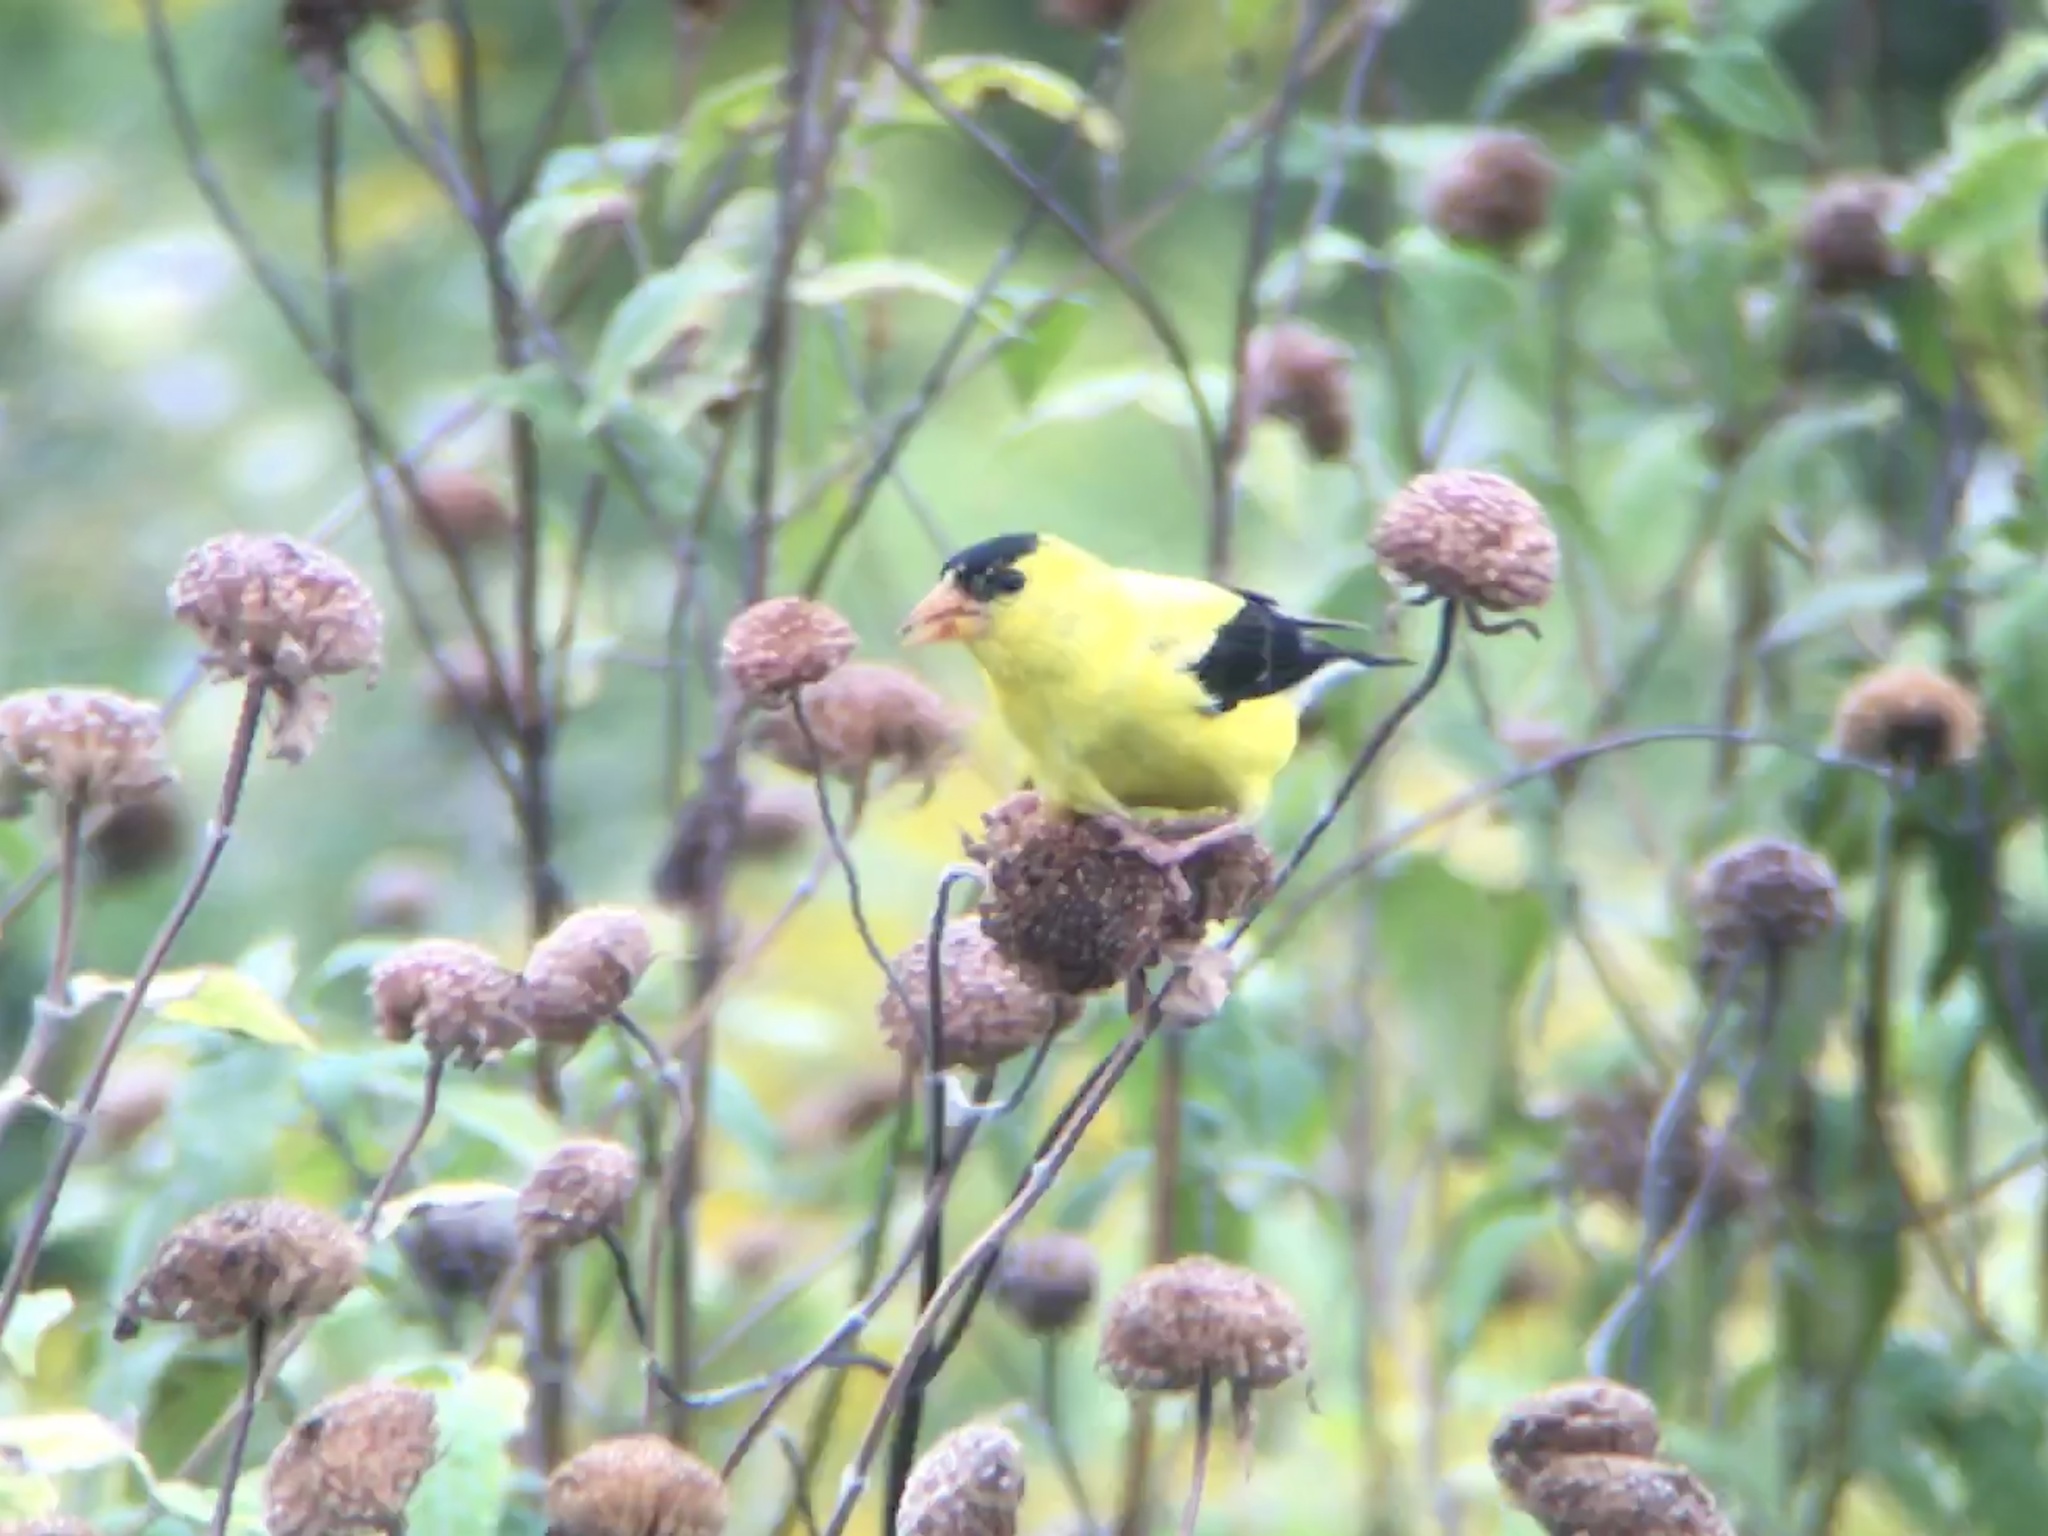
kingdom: Animalia
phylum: Chordata
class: Aves
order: Passeriformes
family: Fringillidae
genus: Spinus
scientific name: Spinus tristis
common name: American goldfinch
